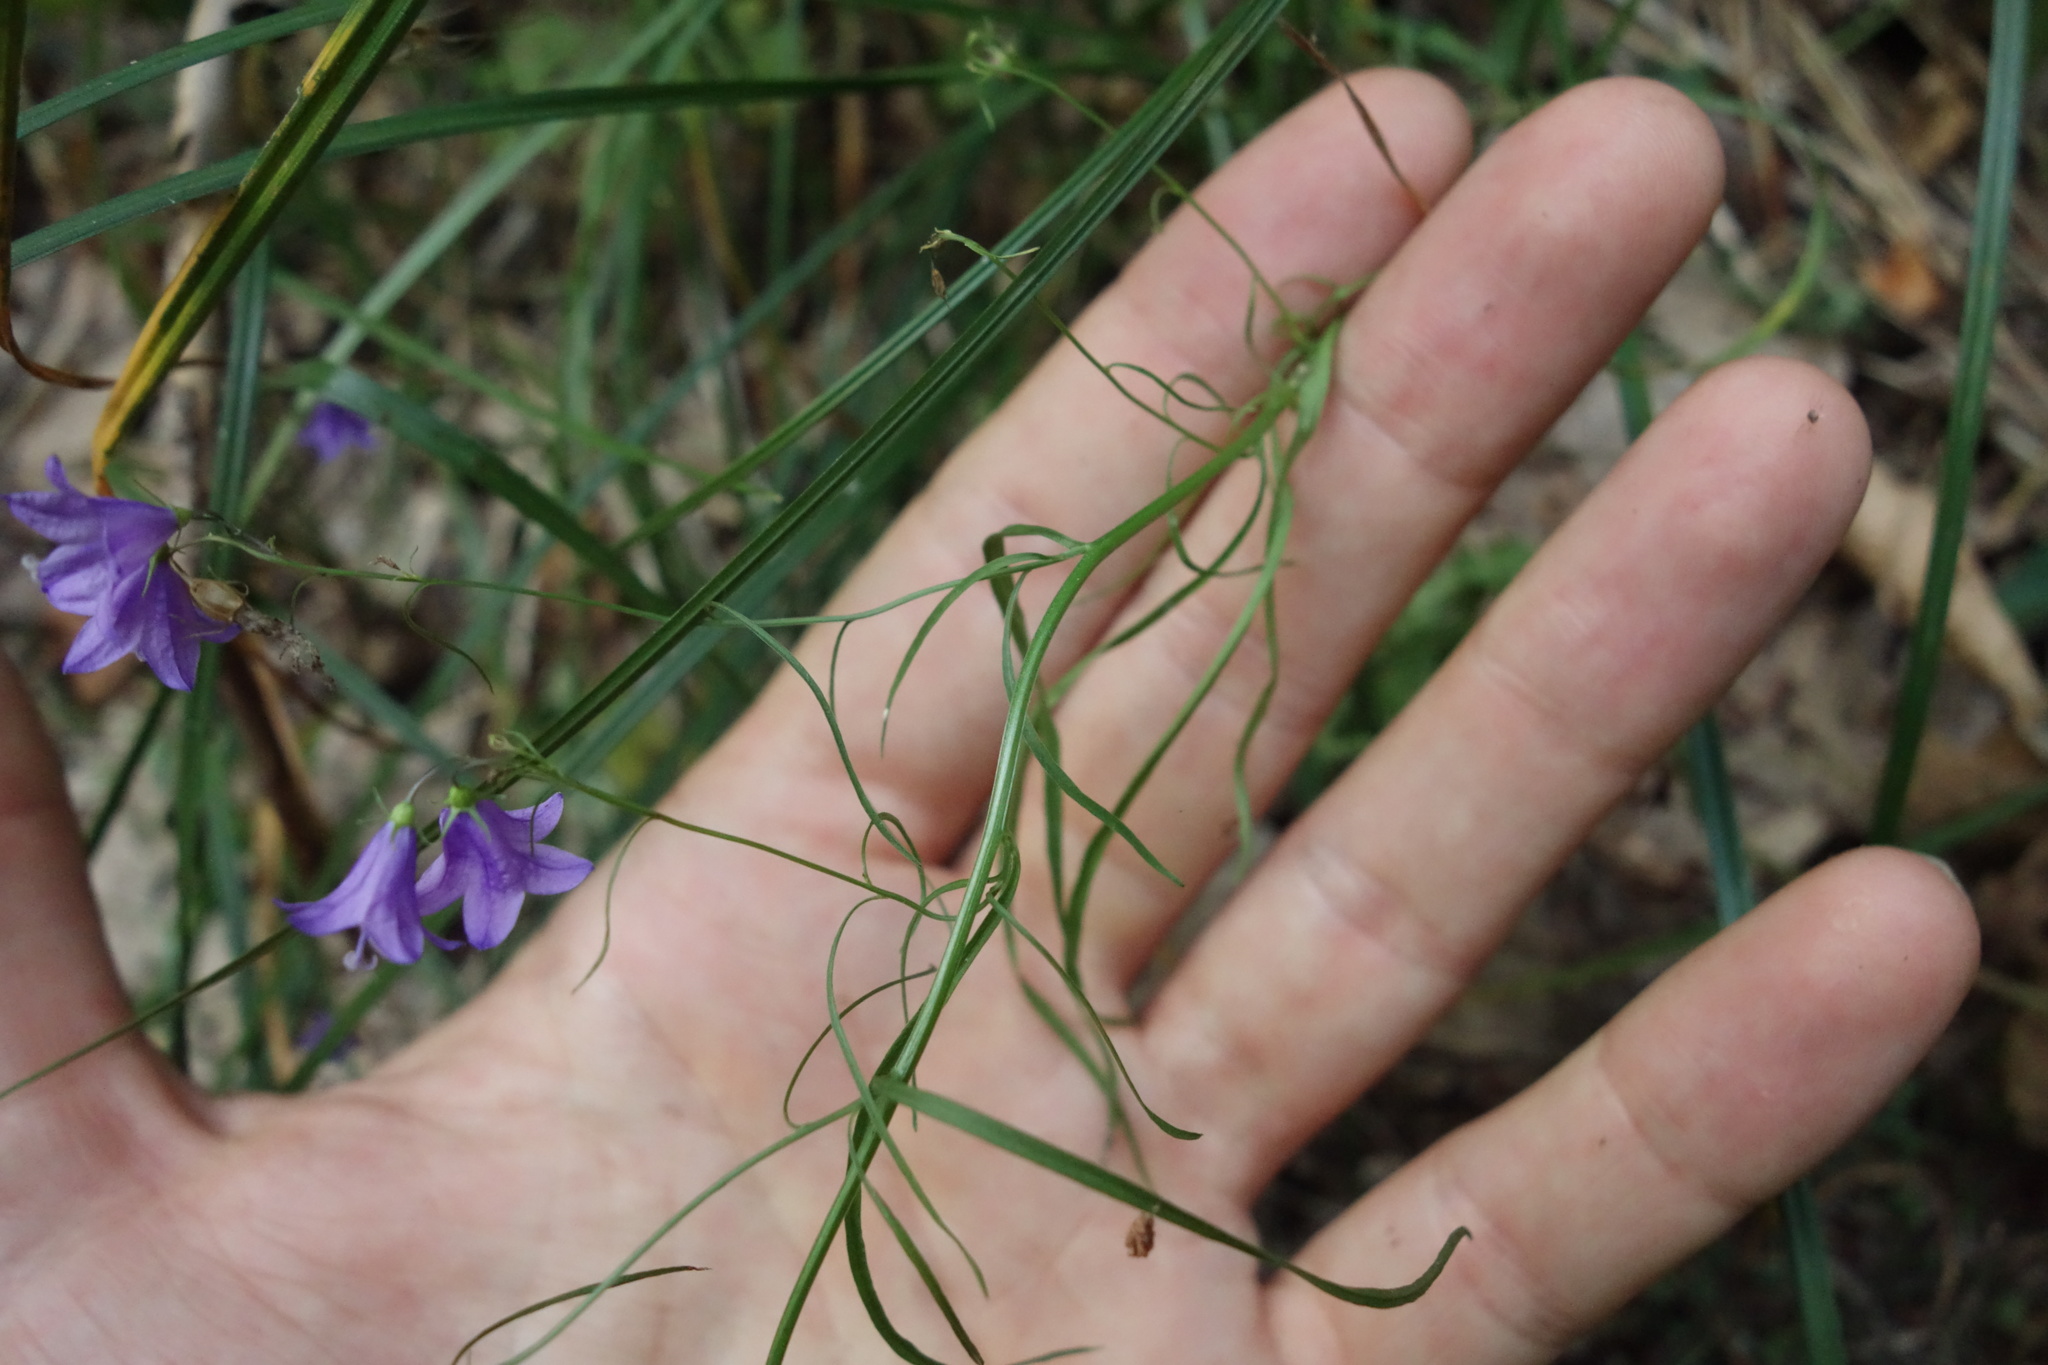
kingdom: Plantae
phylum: Tracheophyta
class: Magnoliopsida
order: Asterales
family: Campanulaceae
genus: Campanula
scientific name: Campanula rotundifolia
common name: Harebell
